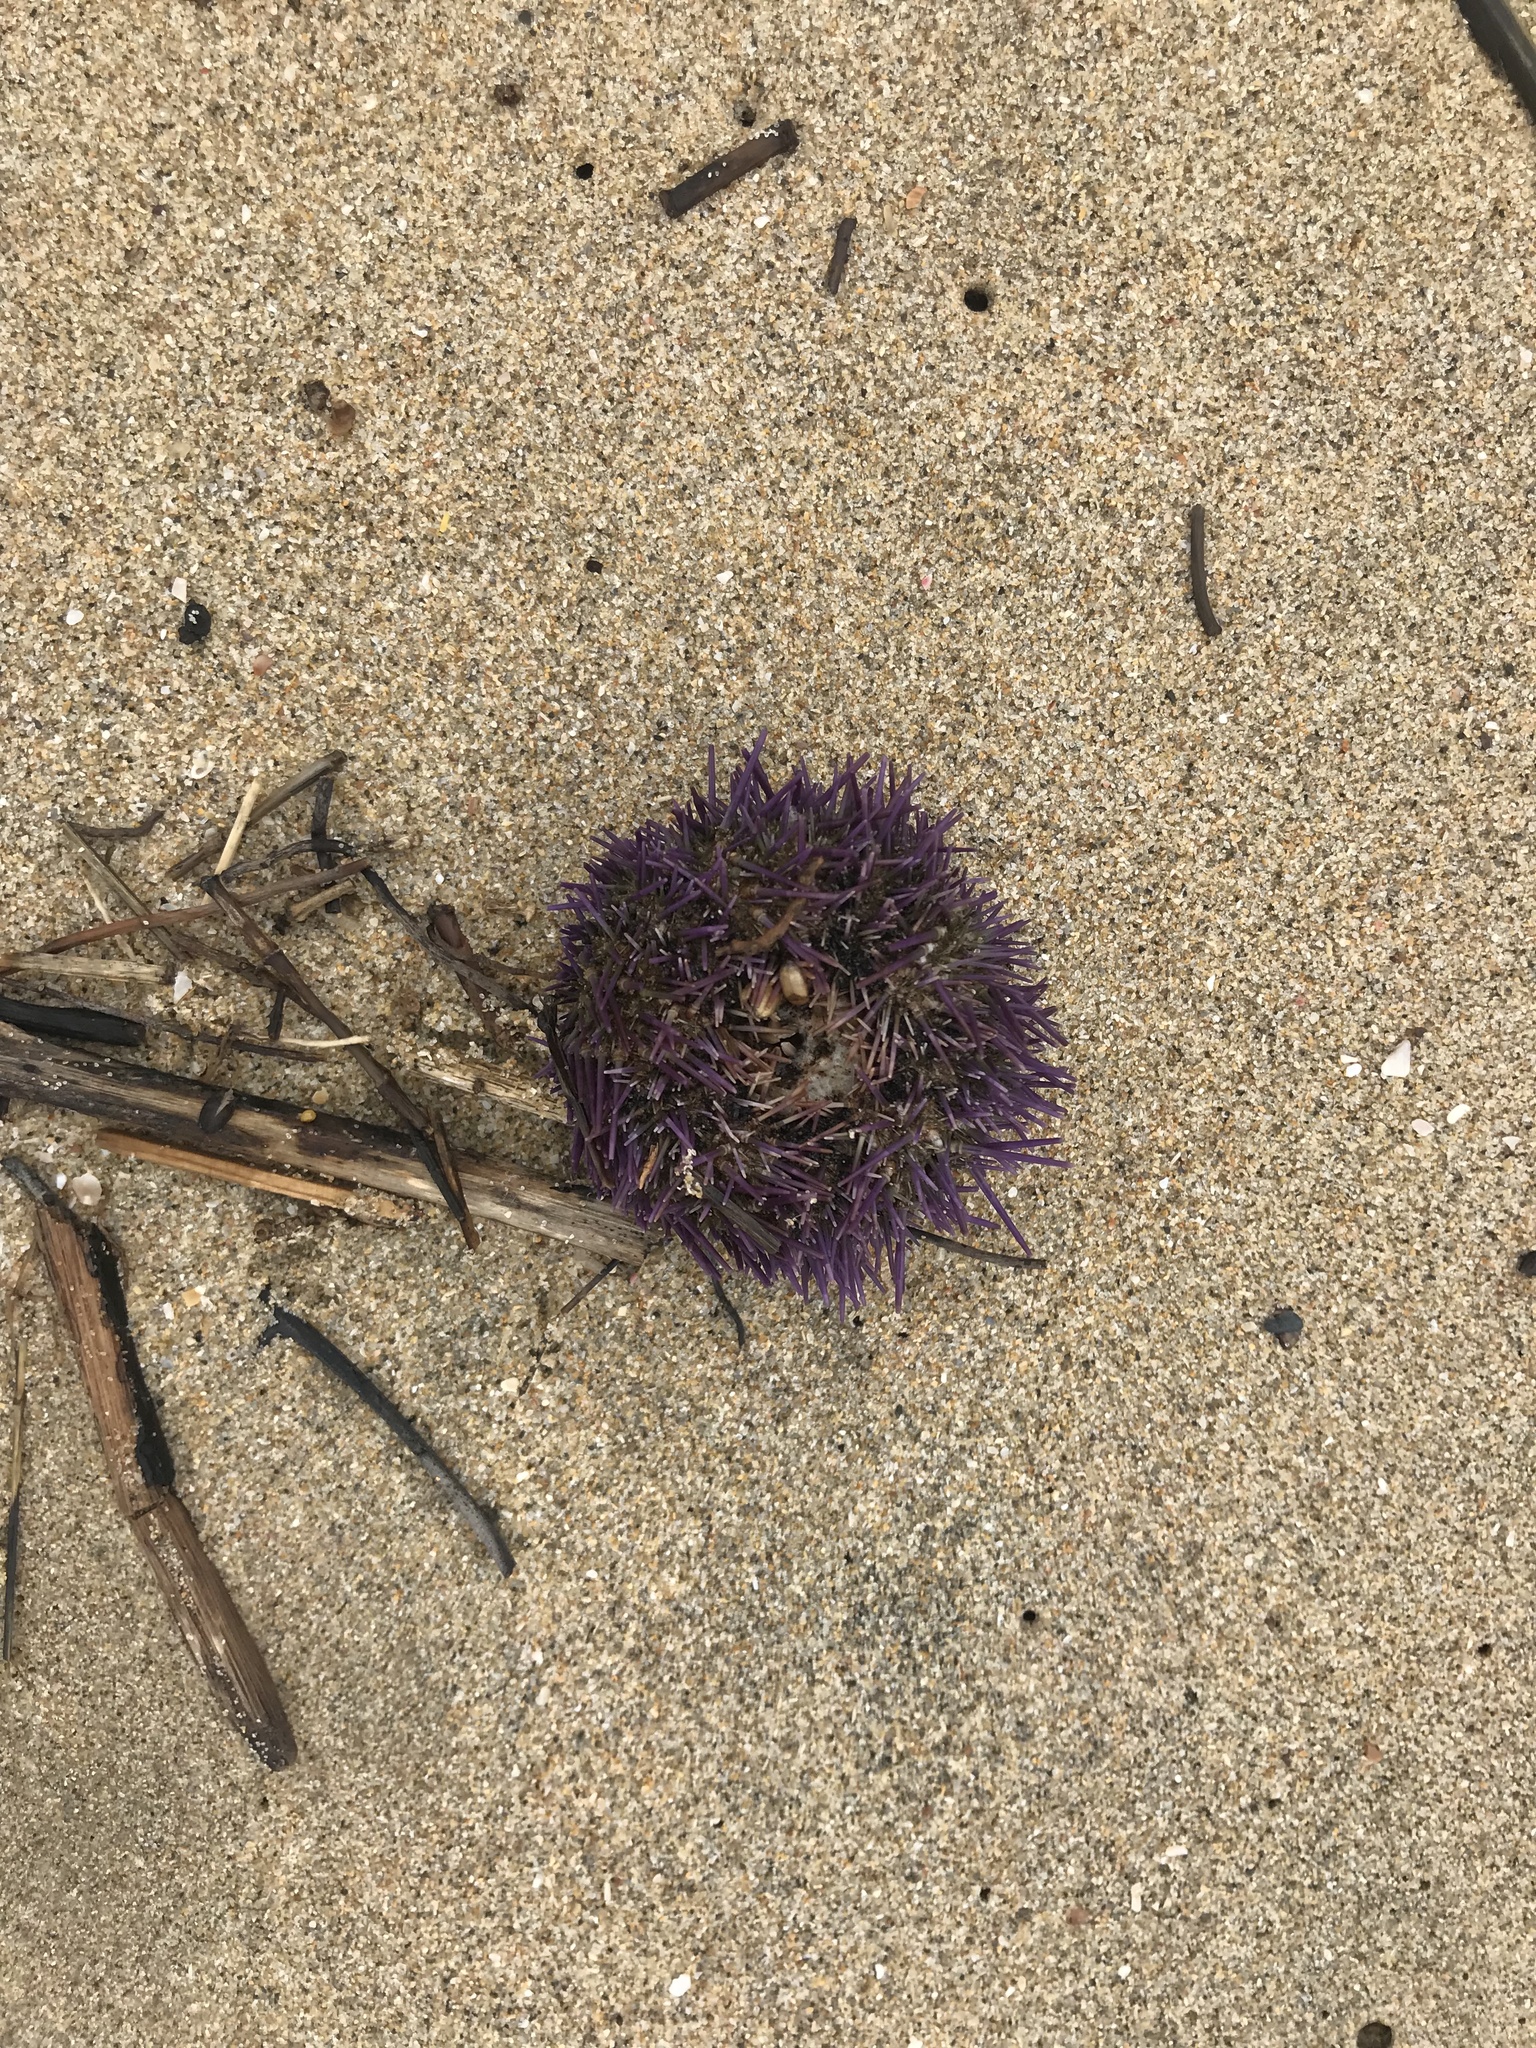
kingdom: Animalia
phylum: Echinodermata
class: Echinoidea
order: Camarodonta
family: Parechinidae
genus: Parechinus
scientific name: Parechinus angulosus
